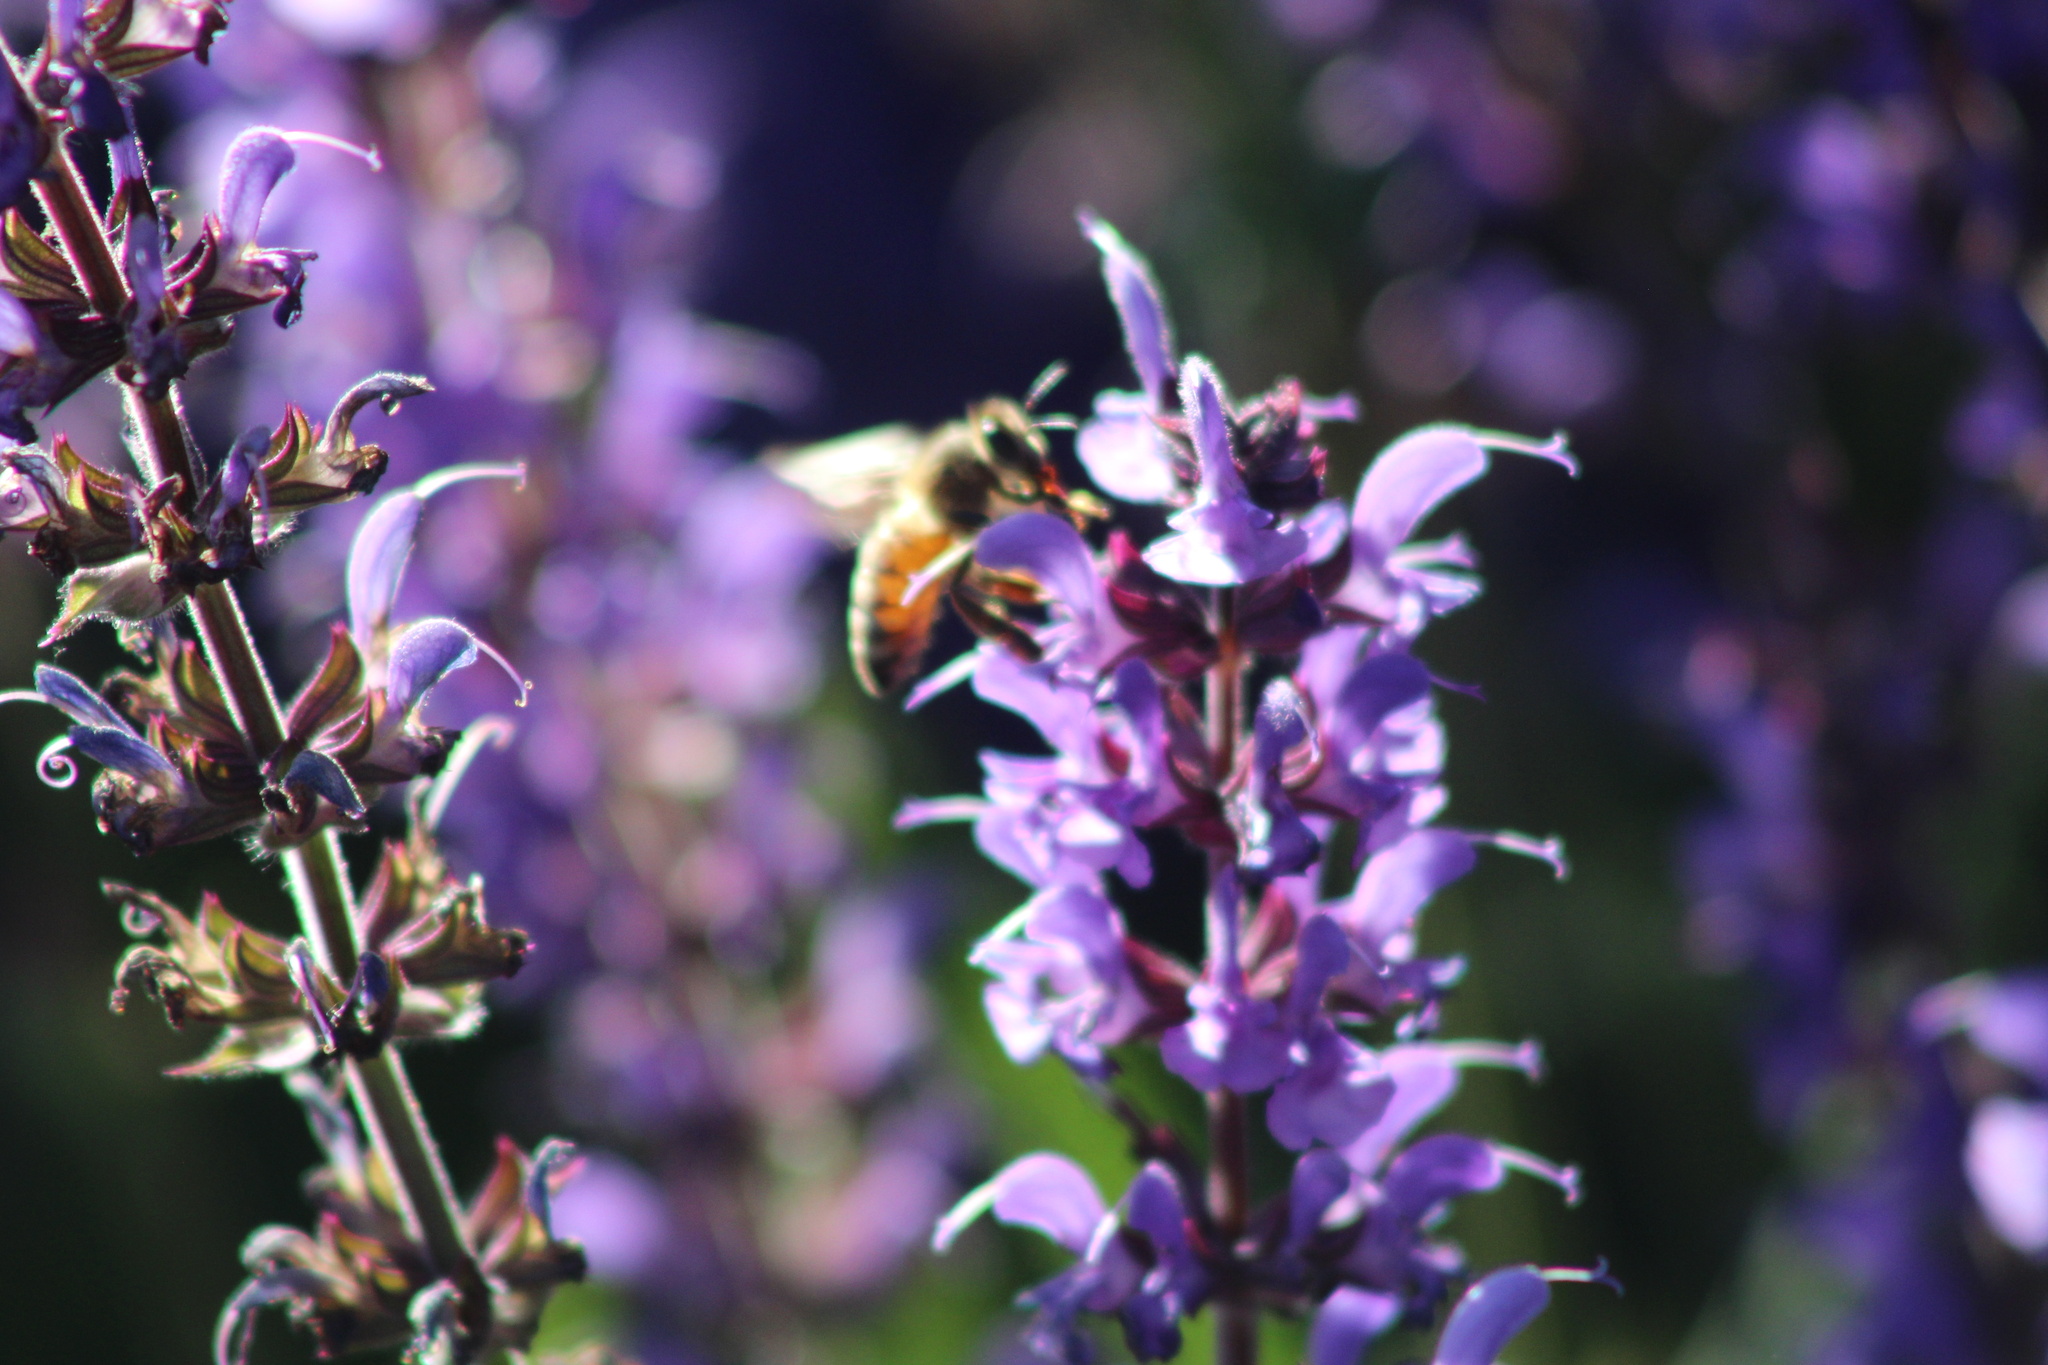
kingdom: Animalia
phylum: Arthropoda
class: Insecta
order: Hymenoptera
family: Apidae
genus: Apis
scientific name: Apis mellifera
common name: Honey bee
